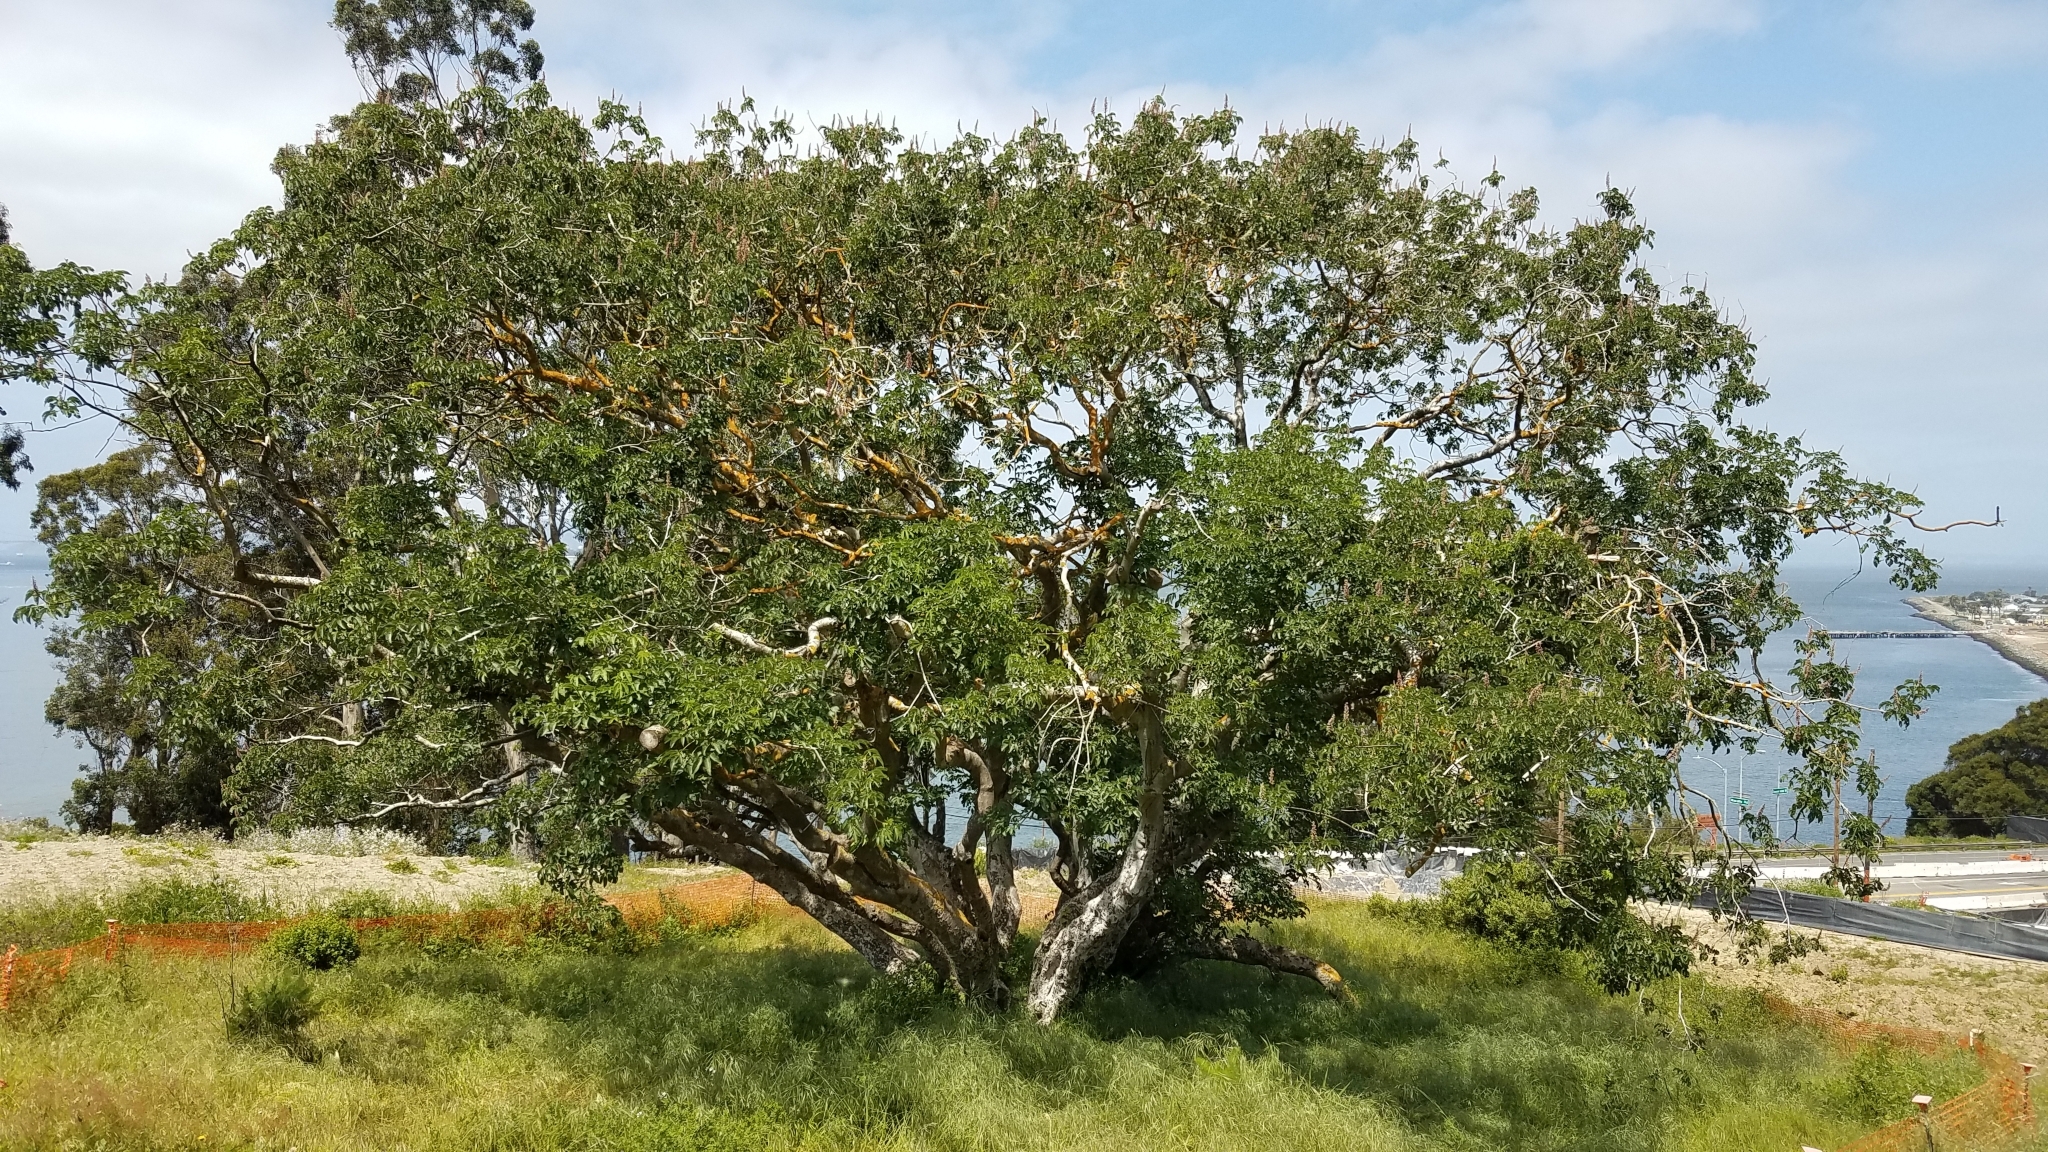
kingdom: Plantae
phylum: Tracheophyta
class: Magnoliopsida
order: Sapindales
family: Sapindaceae
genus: Aesculus
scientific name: Aesculus californica
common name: California buckeye
